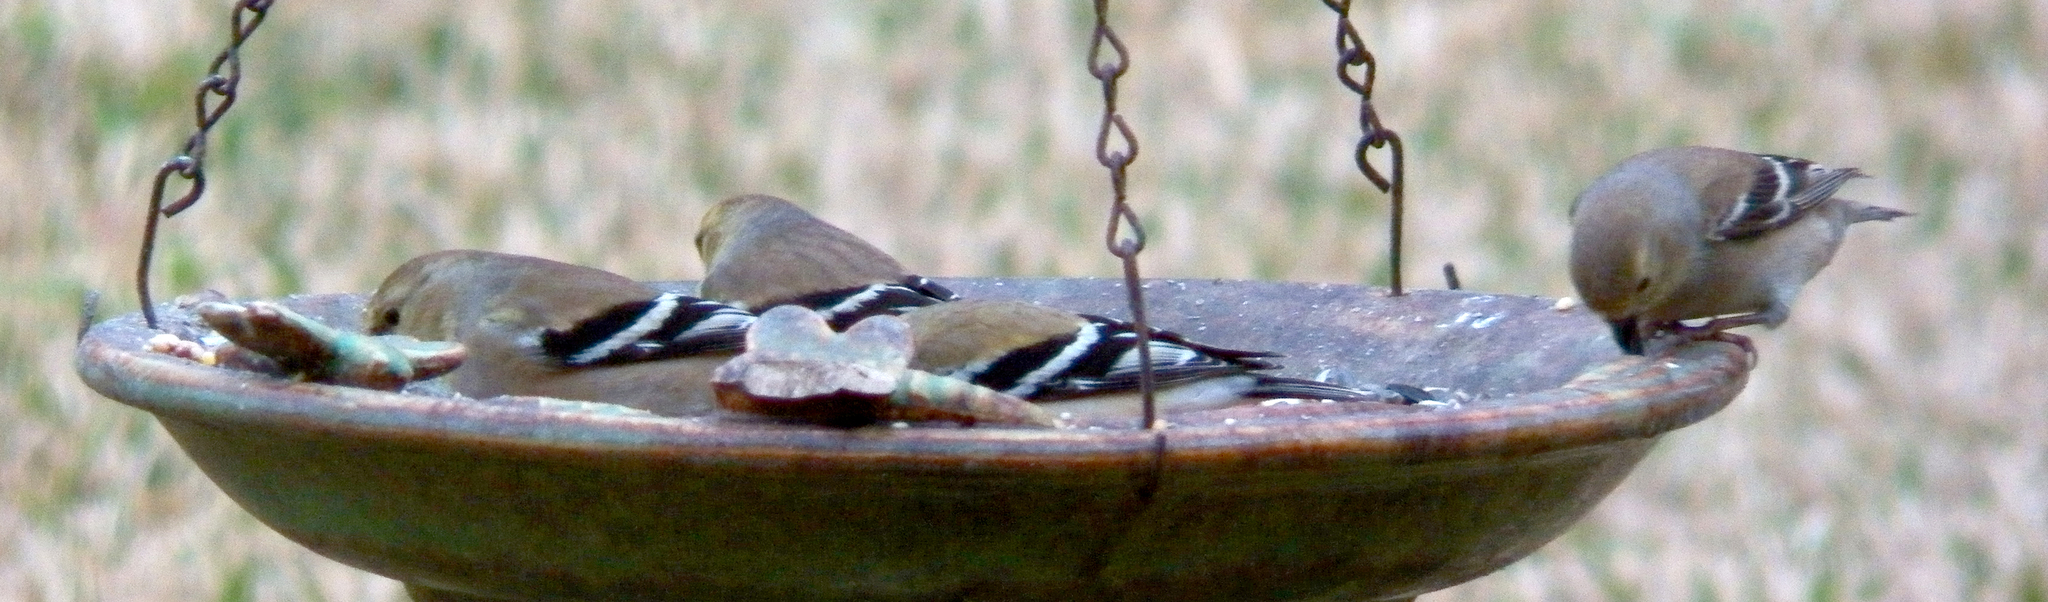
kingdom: Animalia
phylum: Chordata
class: Aves
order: Passeriformes
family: Fringillidae
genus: Spinus
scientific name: Spinus tristis
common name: American goldfinch
